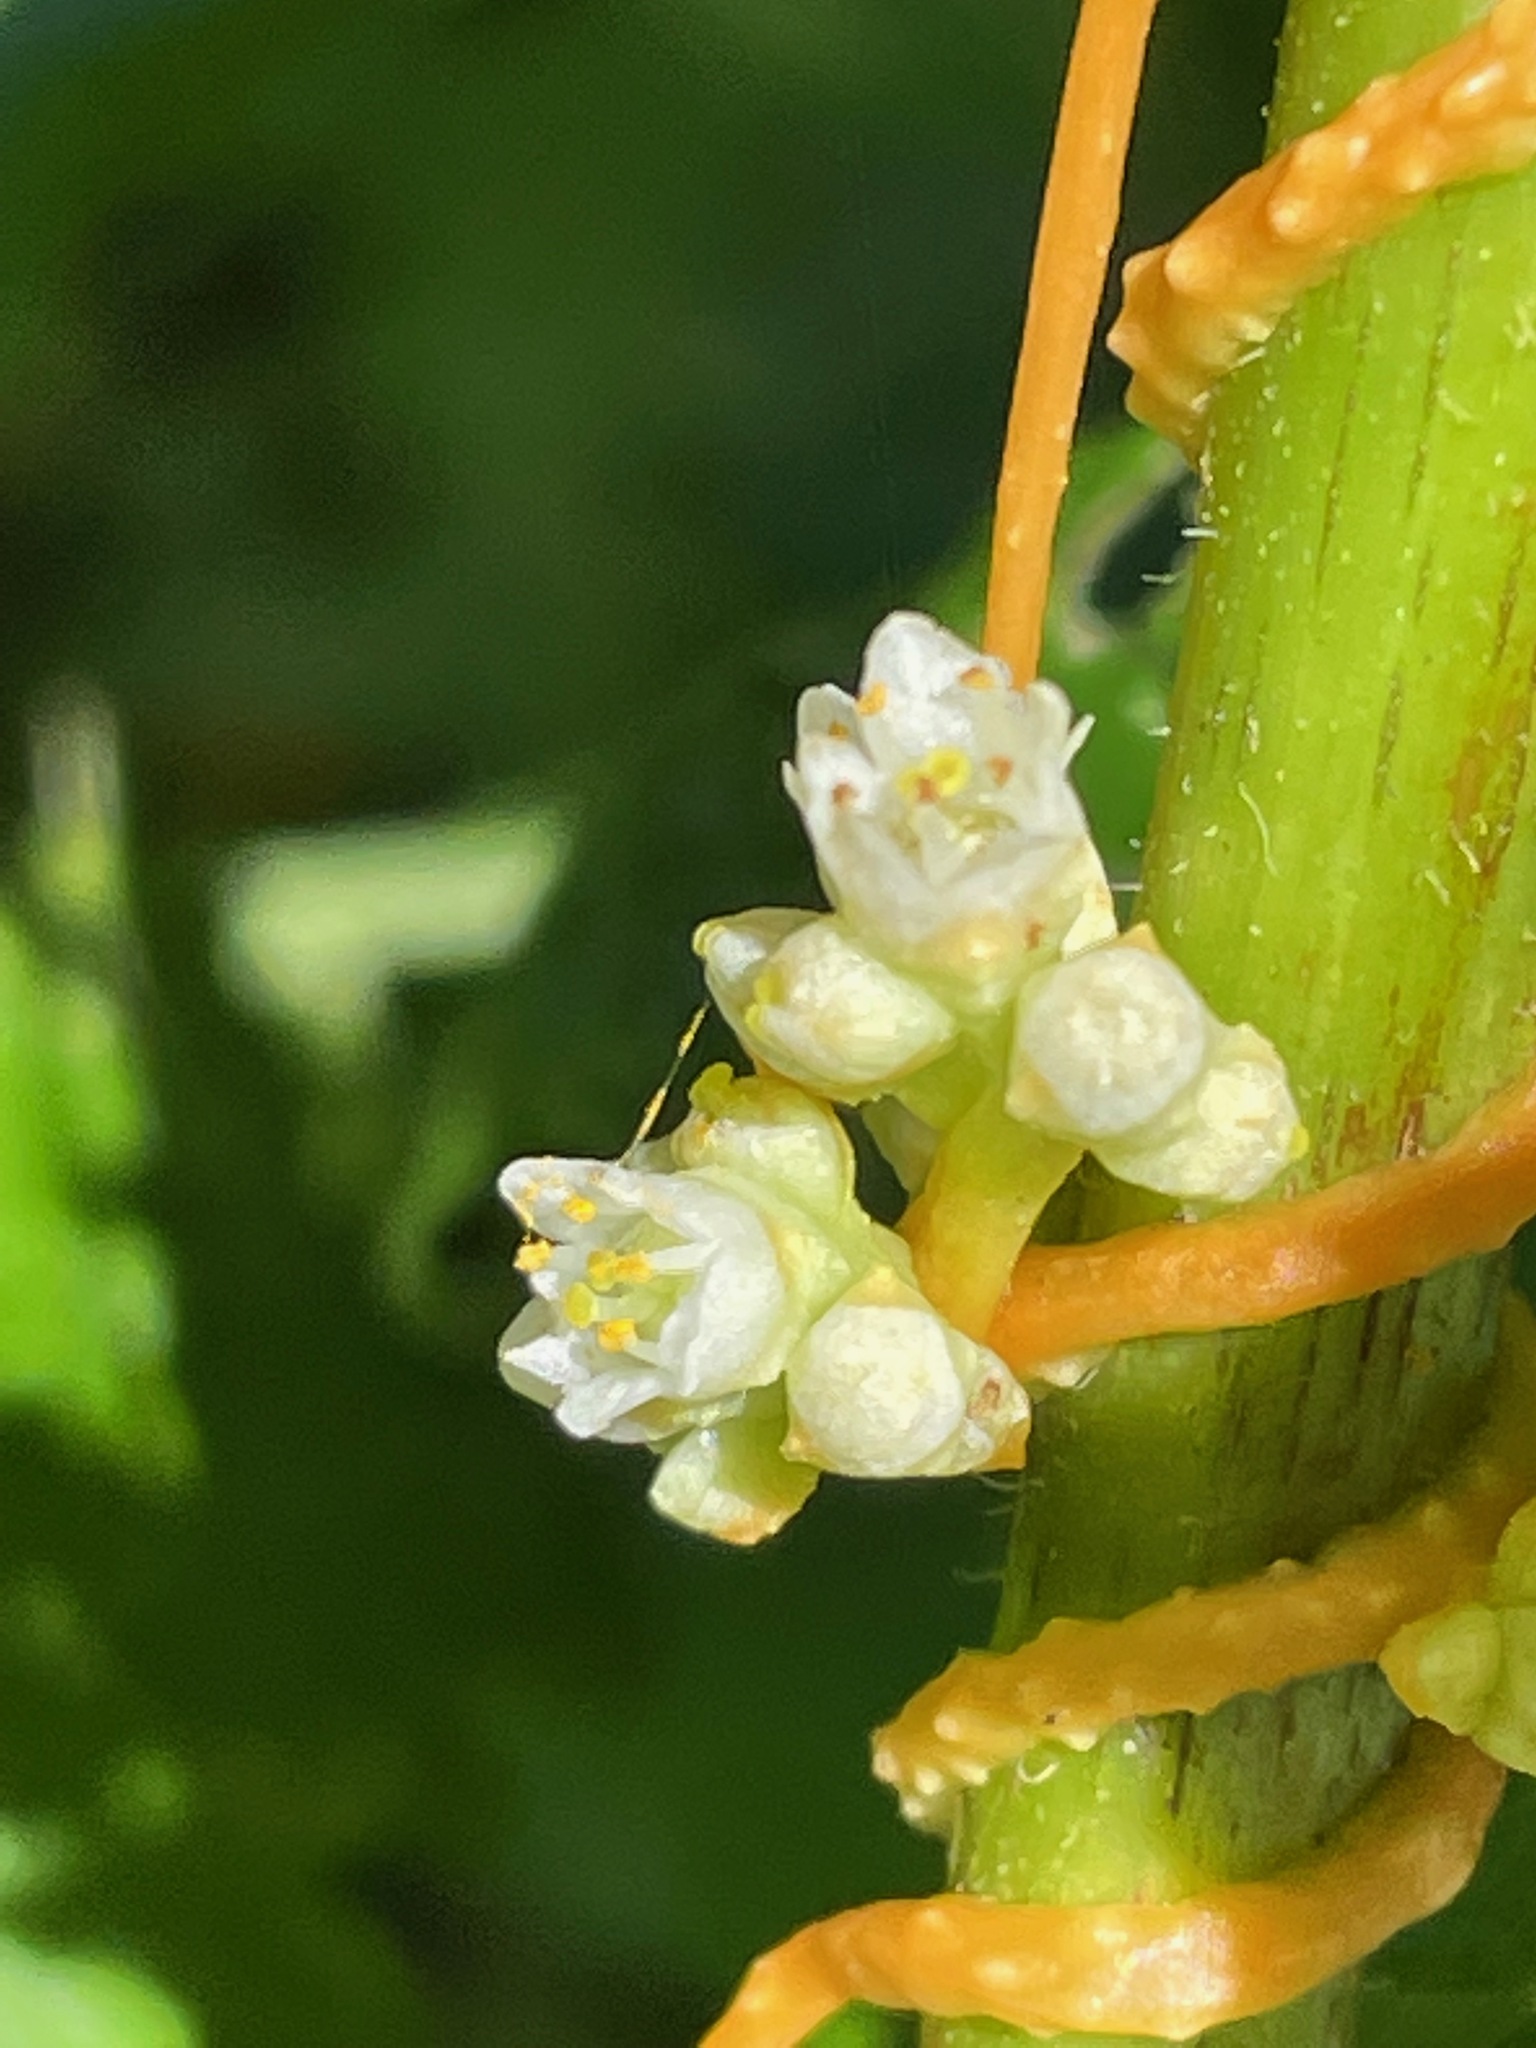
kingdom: Plantae
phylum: Tracheophyta
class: Magnoliopsida
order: Solanales
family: Convolvulaceae
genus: Cuscuta
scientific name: Cuscuta gronovii
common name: Common dodder
